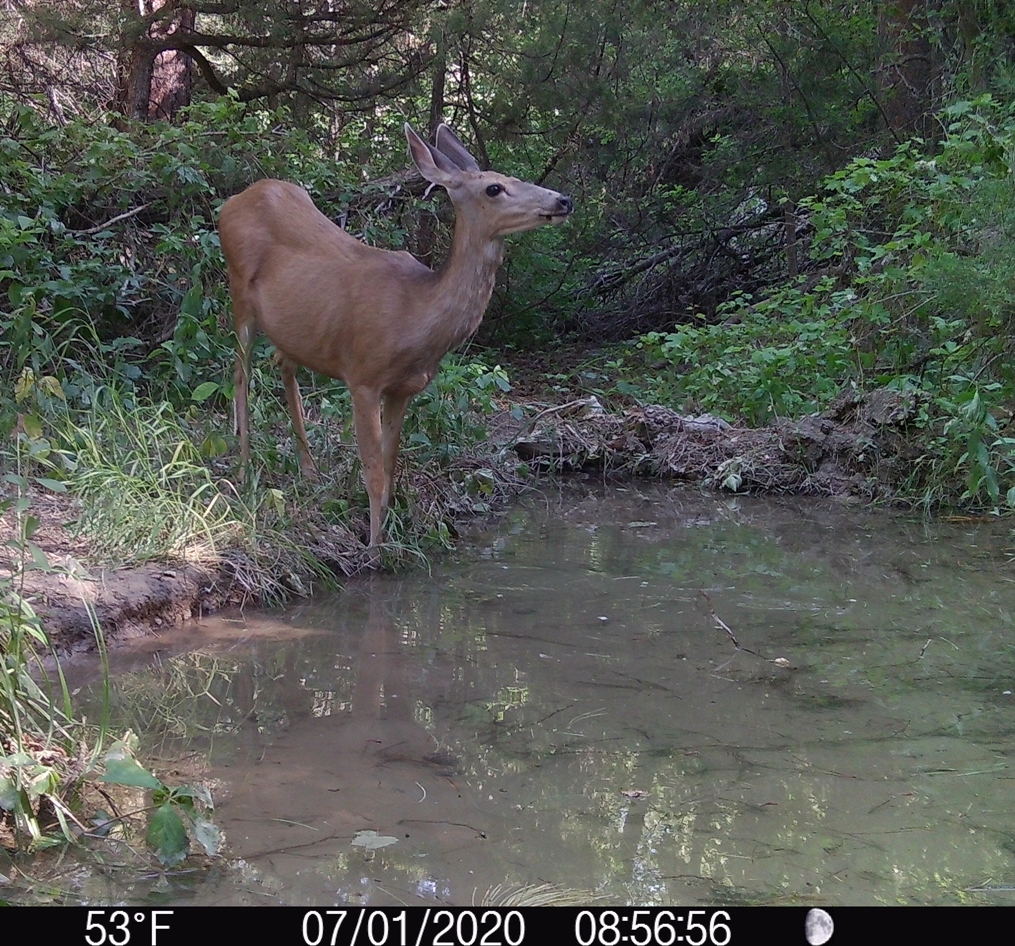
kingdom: Animalia
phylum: Chordata
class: Mammalia
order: Artiodactyla
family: Cervidae
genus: Odocoileus
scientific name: Odocoileus hemionus
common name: Mule deer
